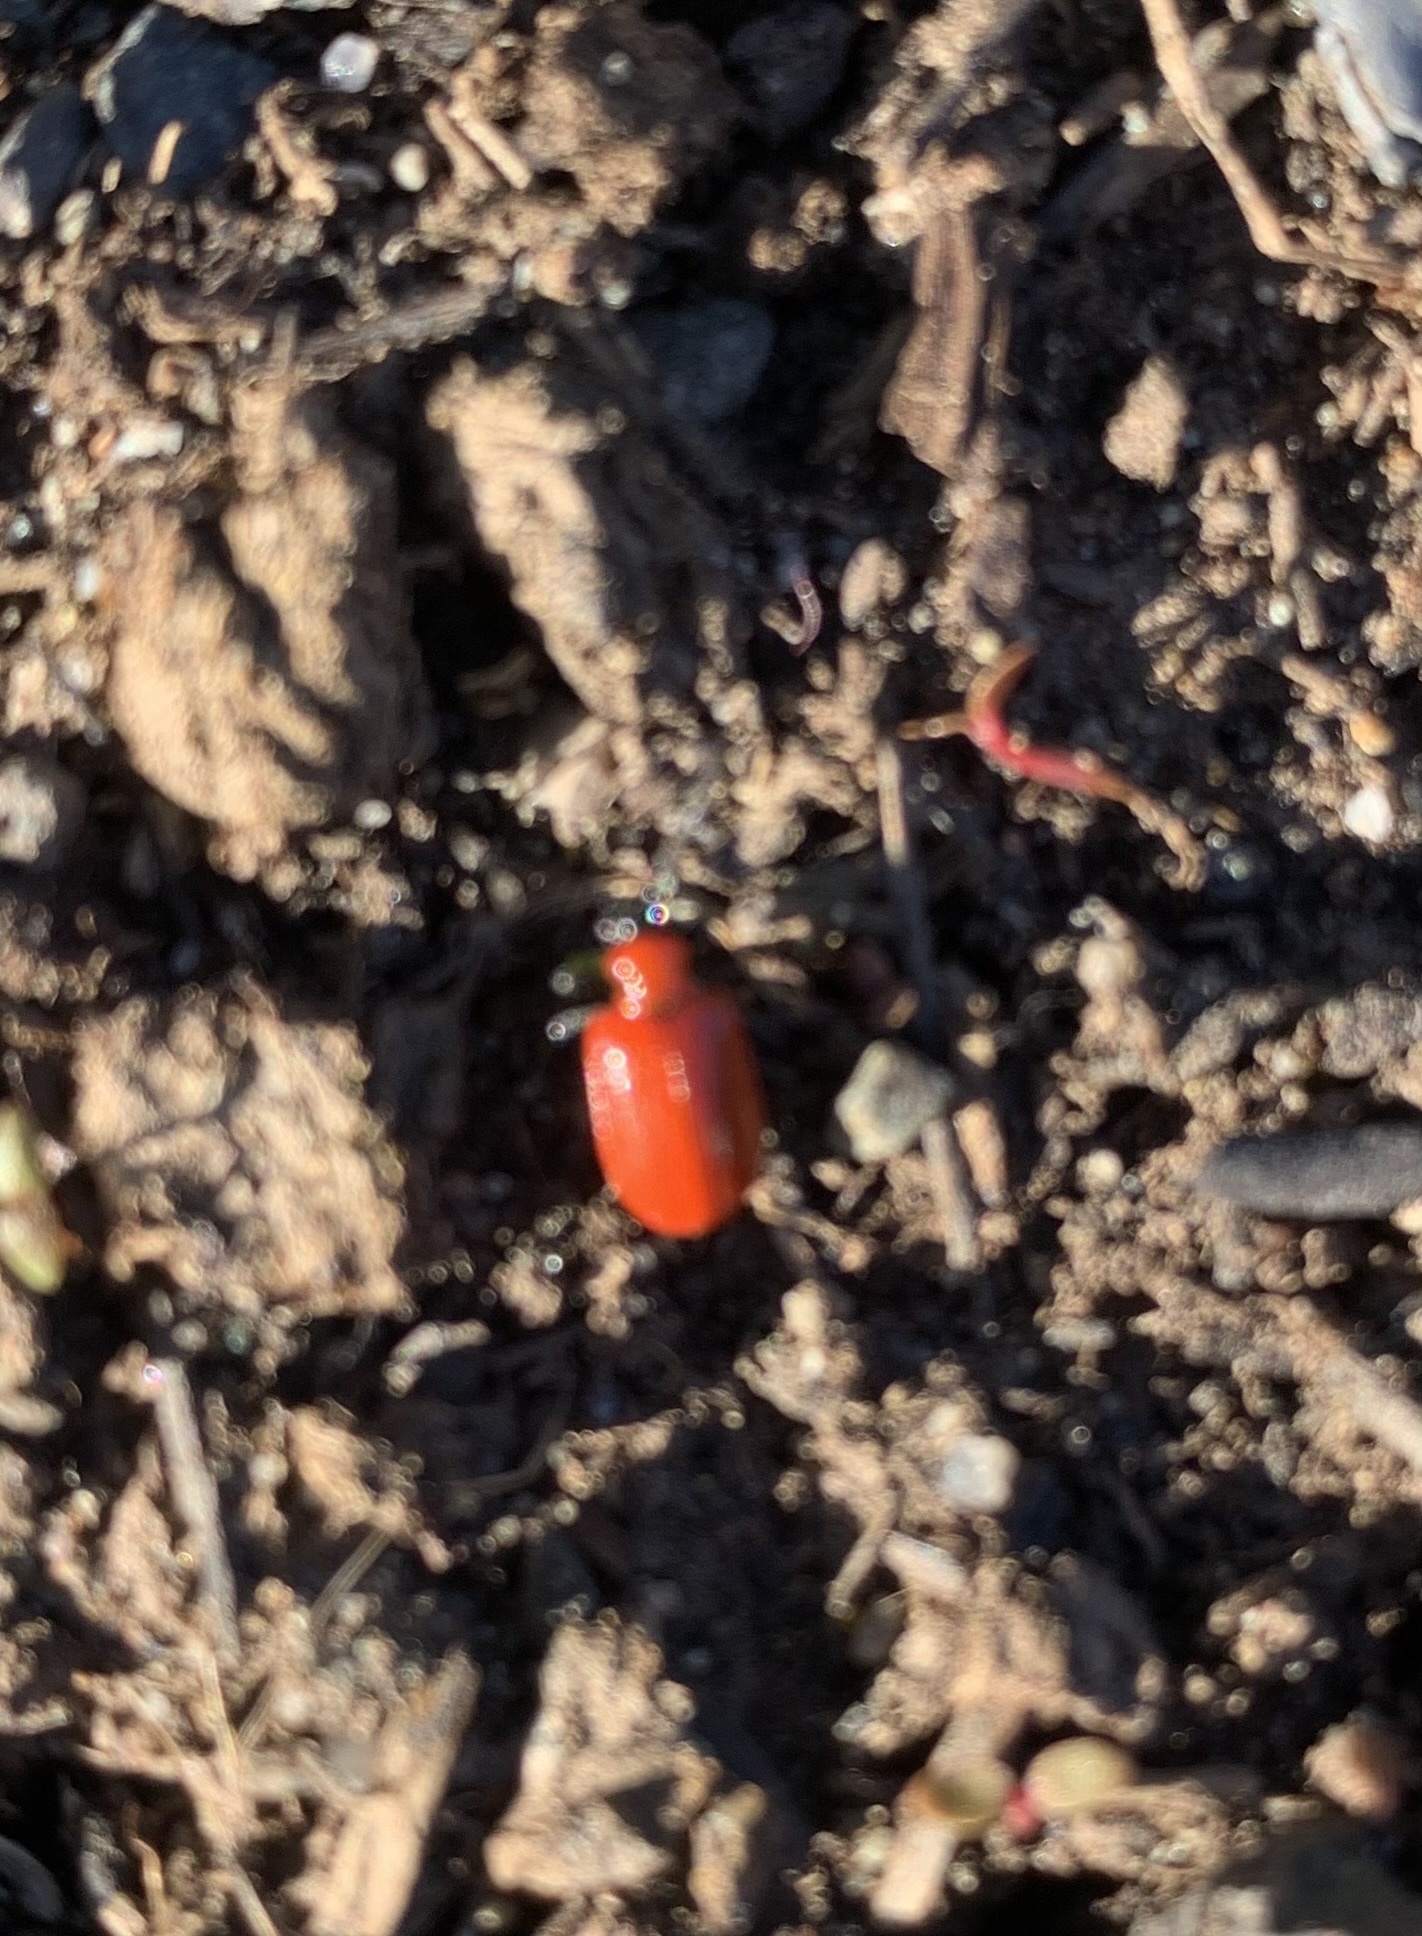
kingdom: Animalia
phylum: Arthropoda
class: Insecta
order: Coleoptera
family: Chrysomelidae
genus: Lilioceris
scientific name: Lilioceris lilii
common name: Lily beetle
